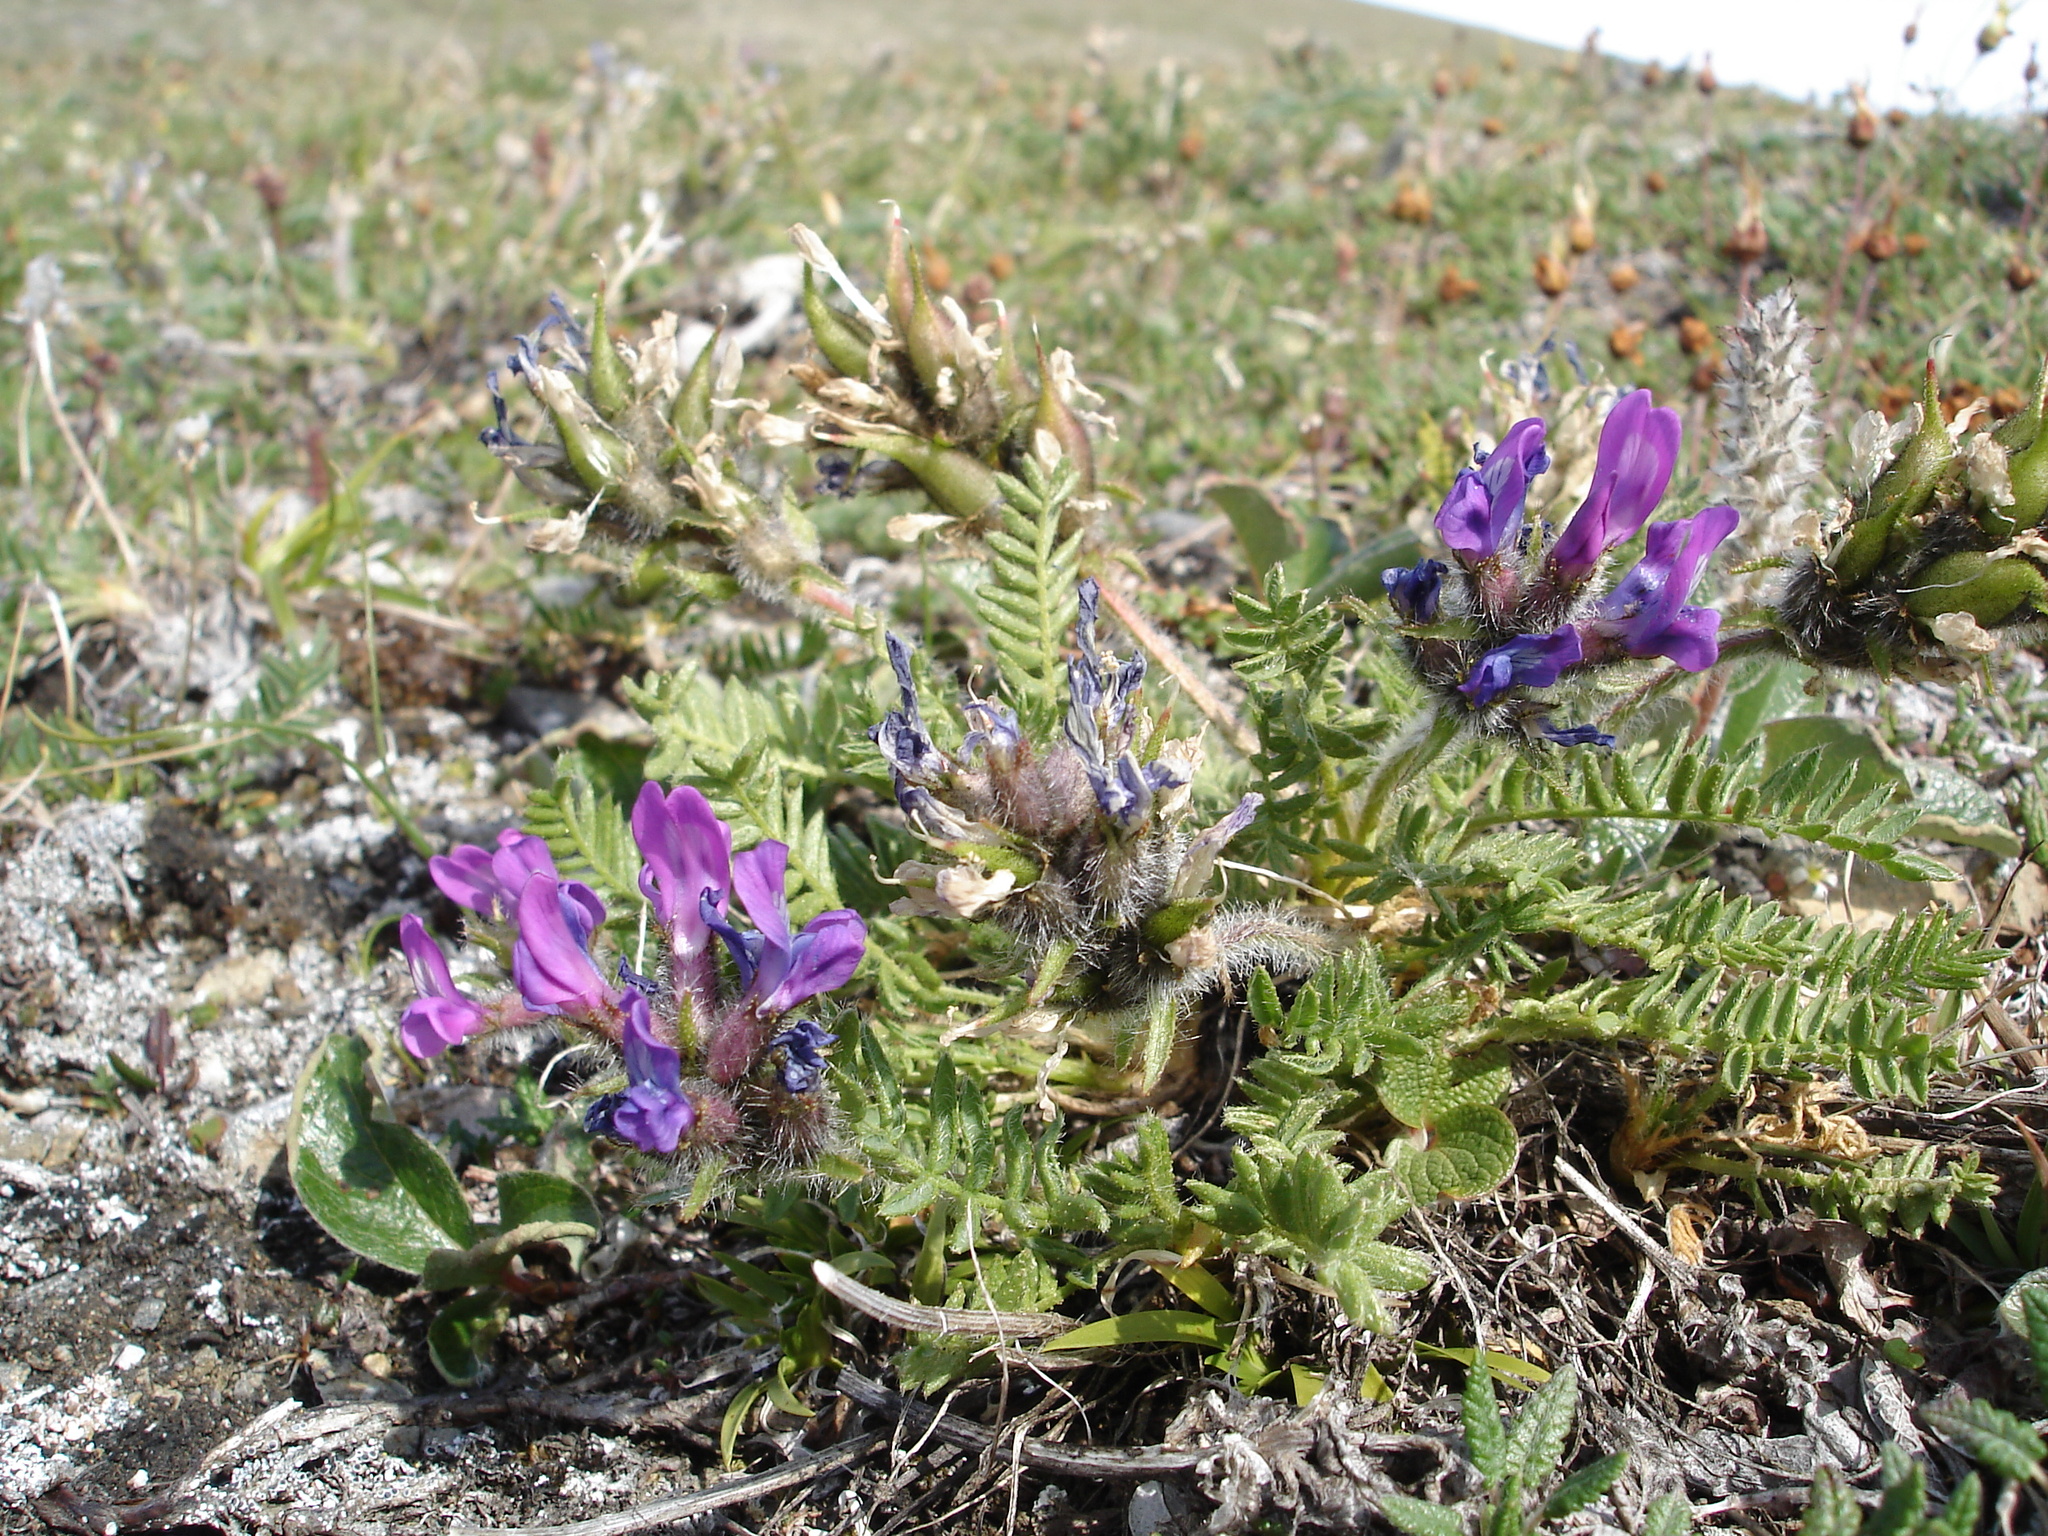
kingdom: Plantae
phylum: Tracheophyta
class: Magnoliopsida
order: Fabales
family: Fabaceae
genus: Oxytropis
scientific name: Oxytropis borealis
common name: Boreal locoweed
